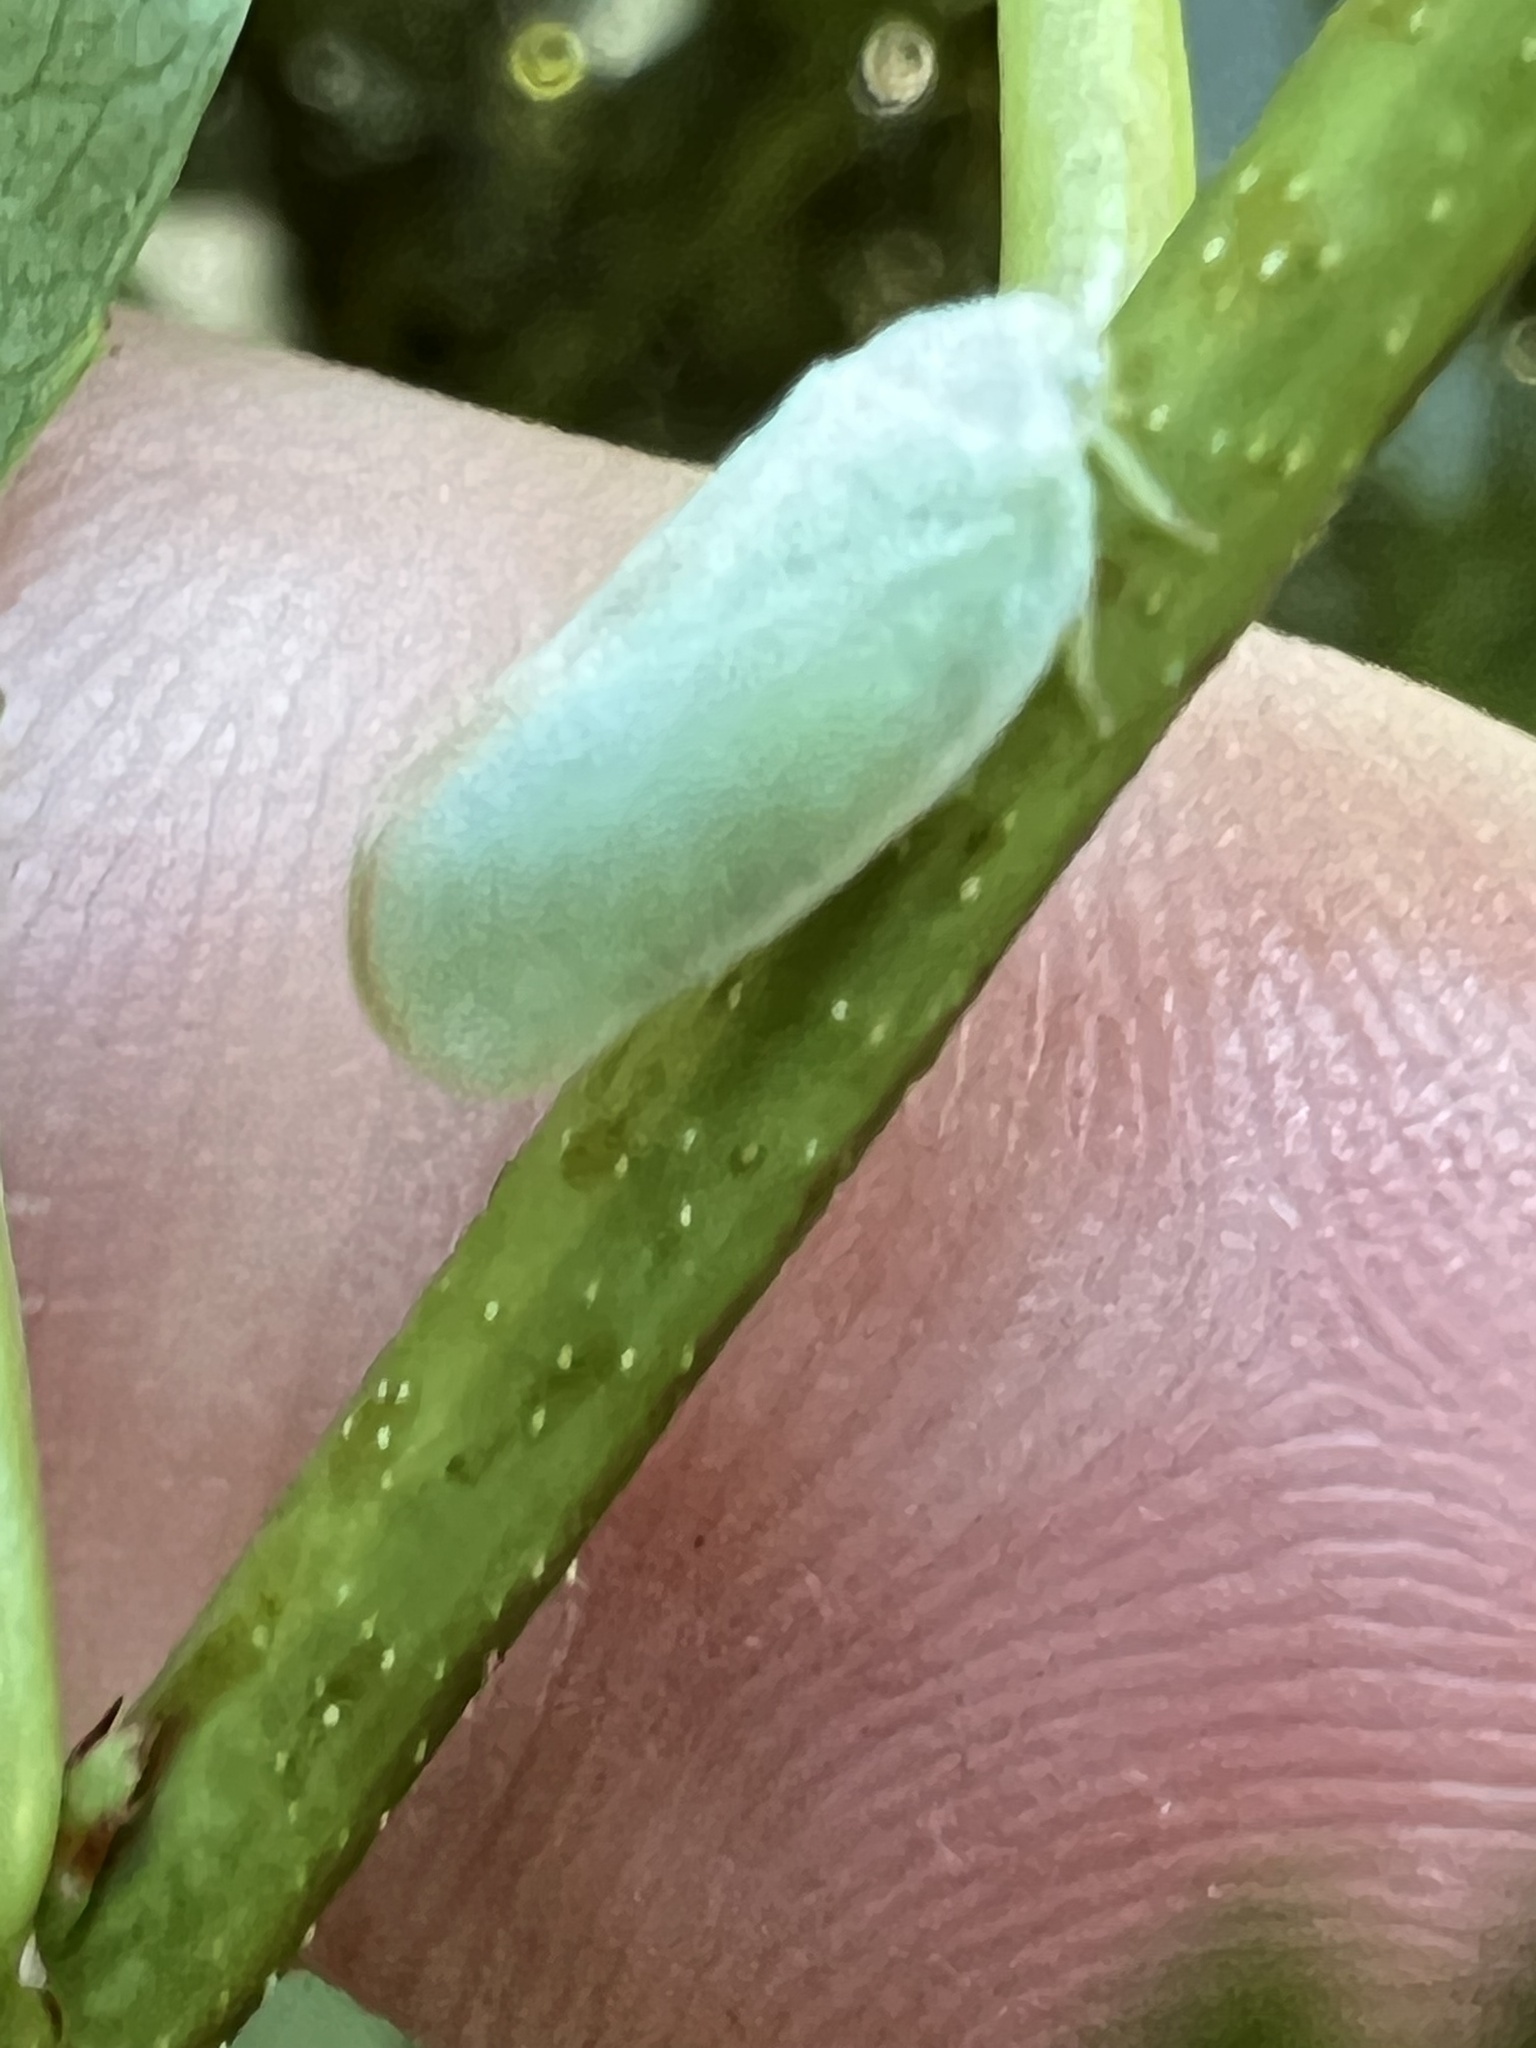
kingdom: Animalia
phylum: Arthropoda
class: Insecta
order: Hemiptera
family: Flatidae
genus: Ormenoides
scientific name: Ormenoides venusta
